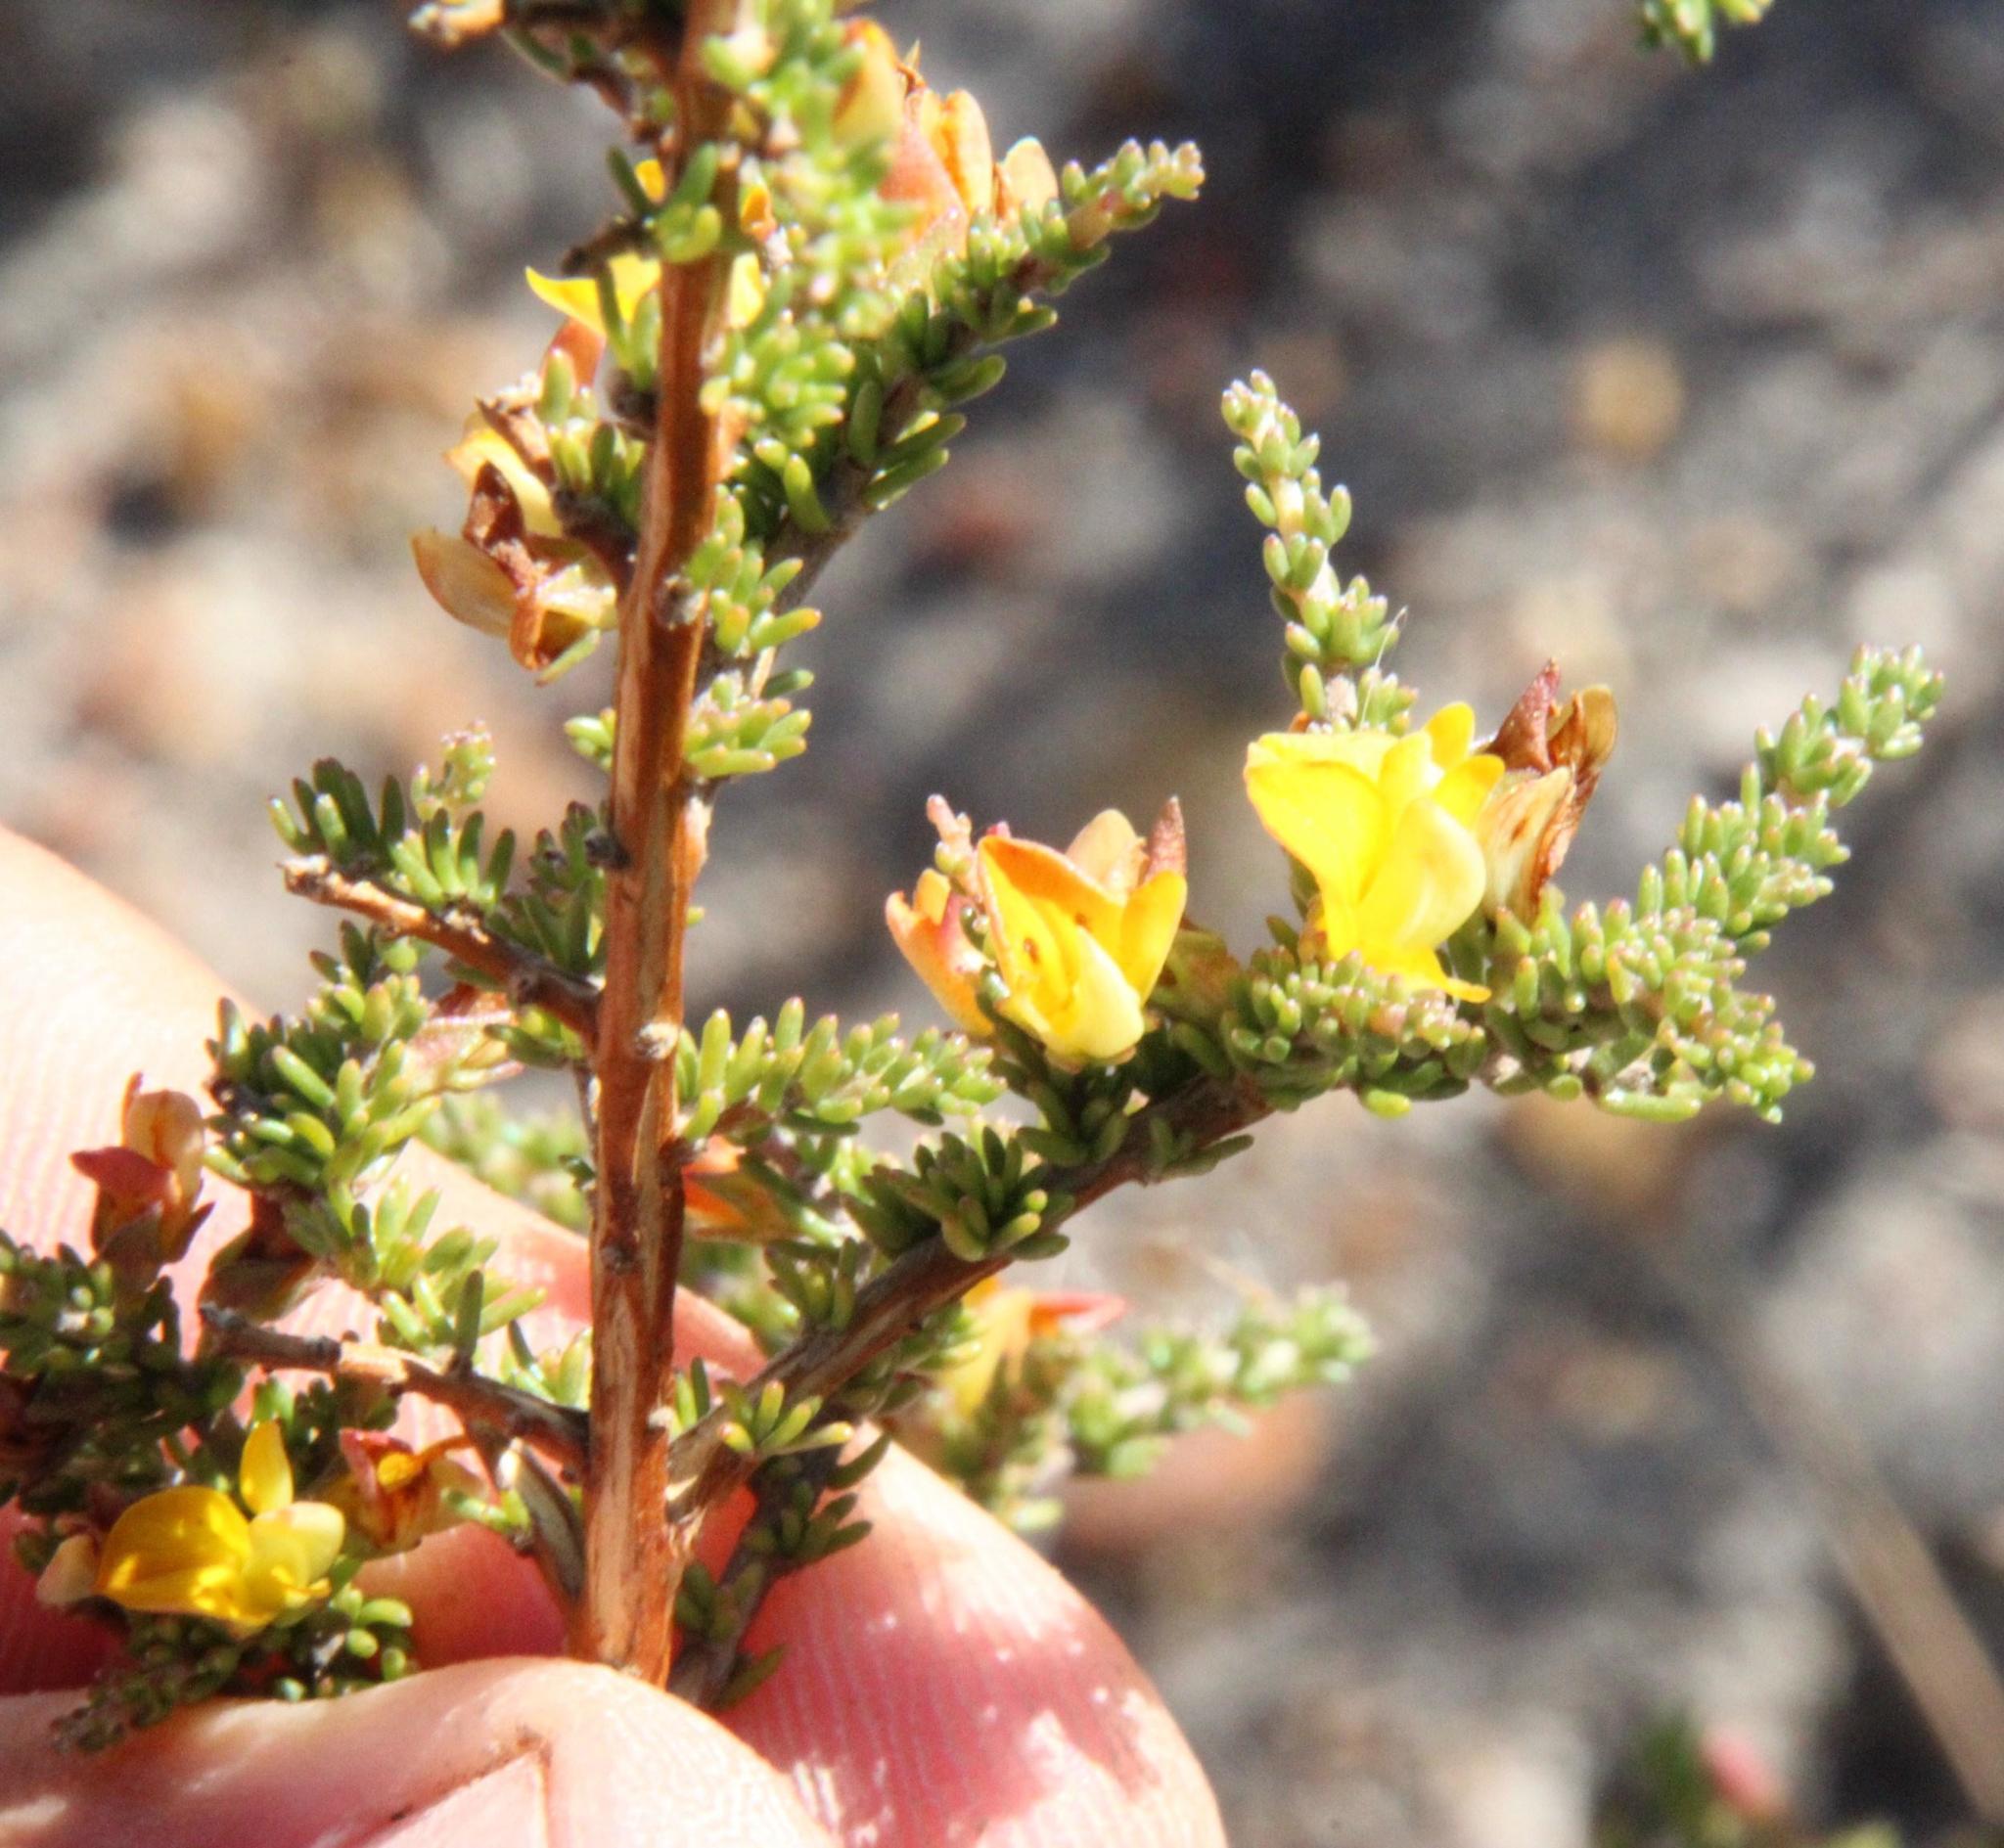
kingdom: Plantae
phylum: Tracheophyta
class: Magnoliopsida
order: Fabales
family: Fabaceae
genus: Aspalathus
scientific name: Aspalathus wurmbeana
